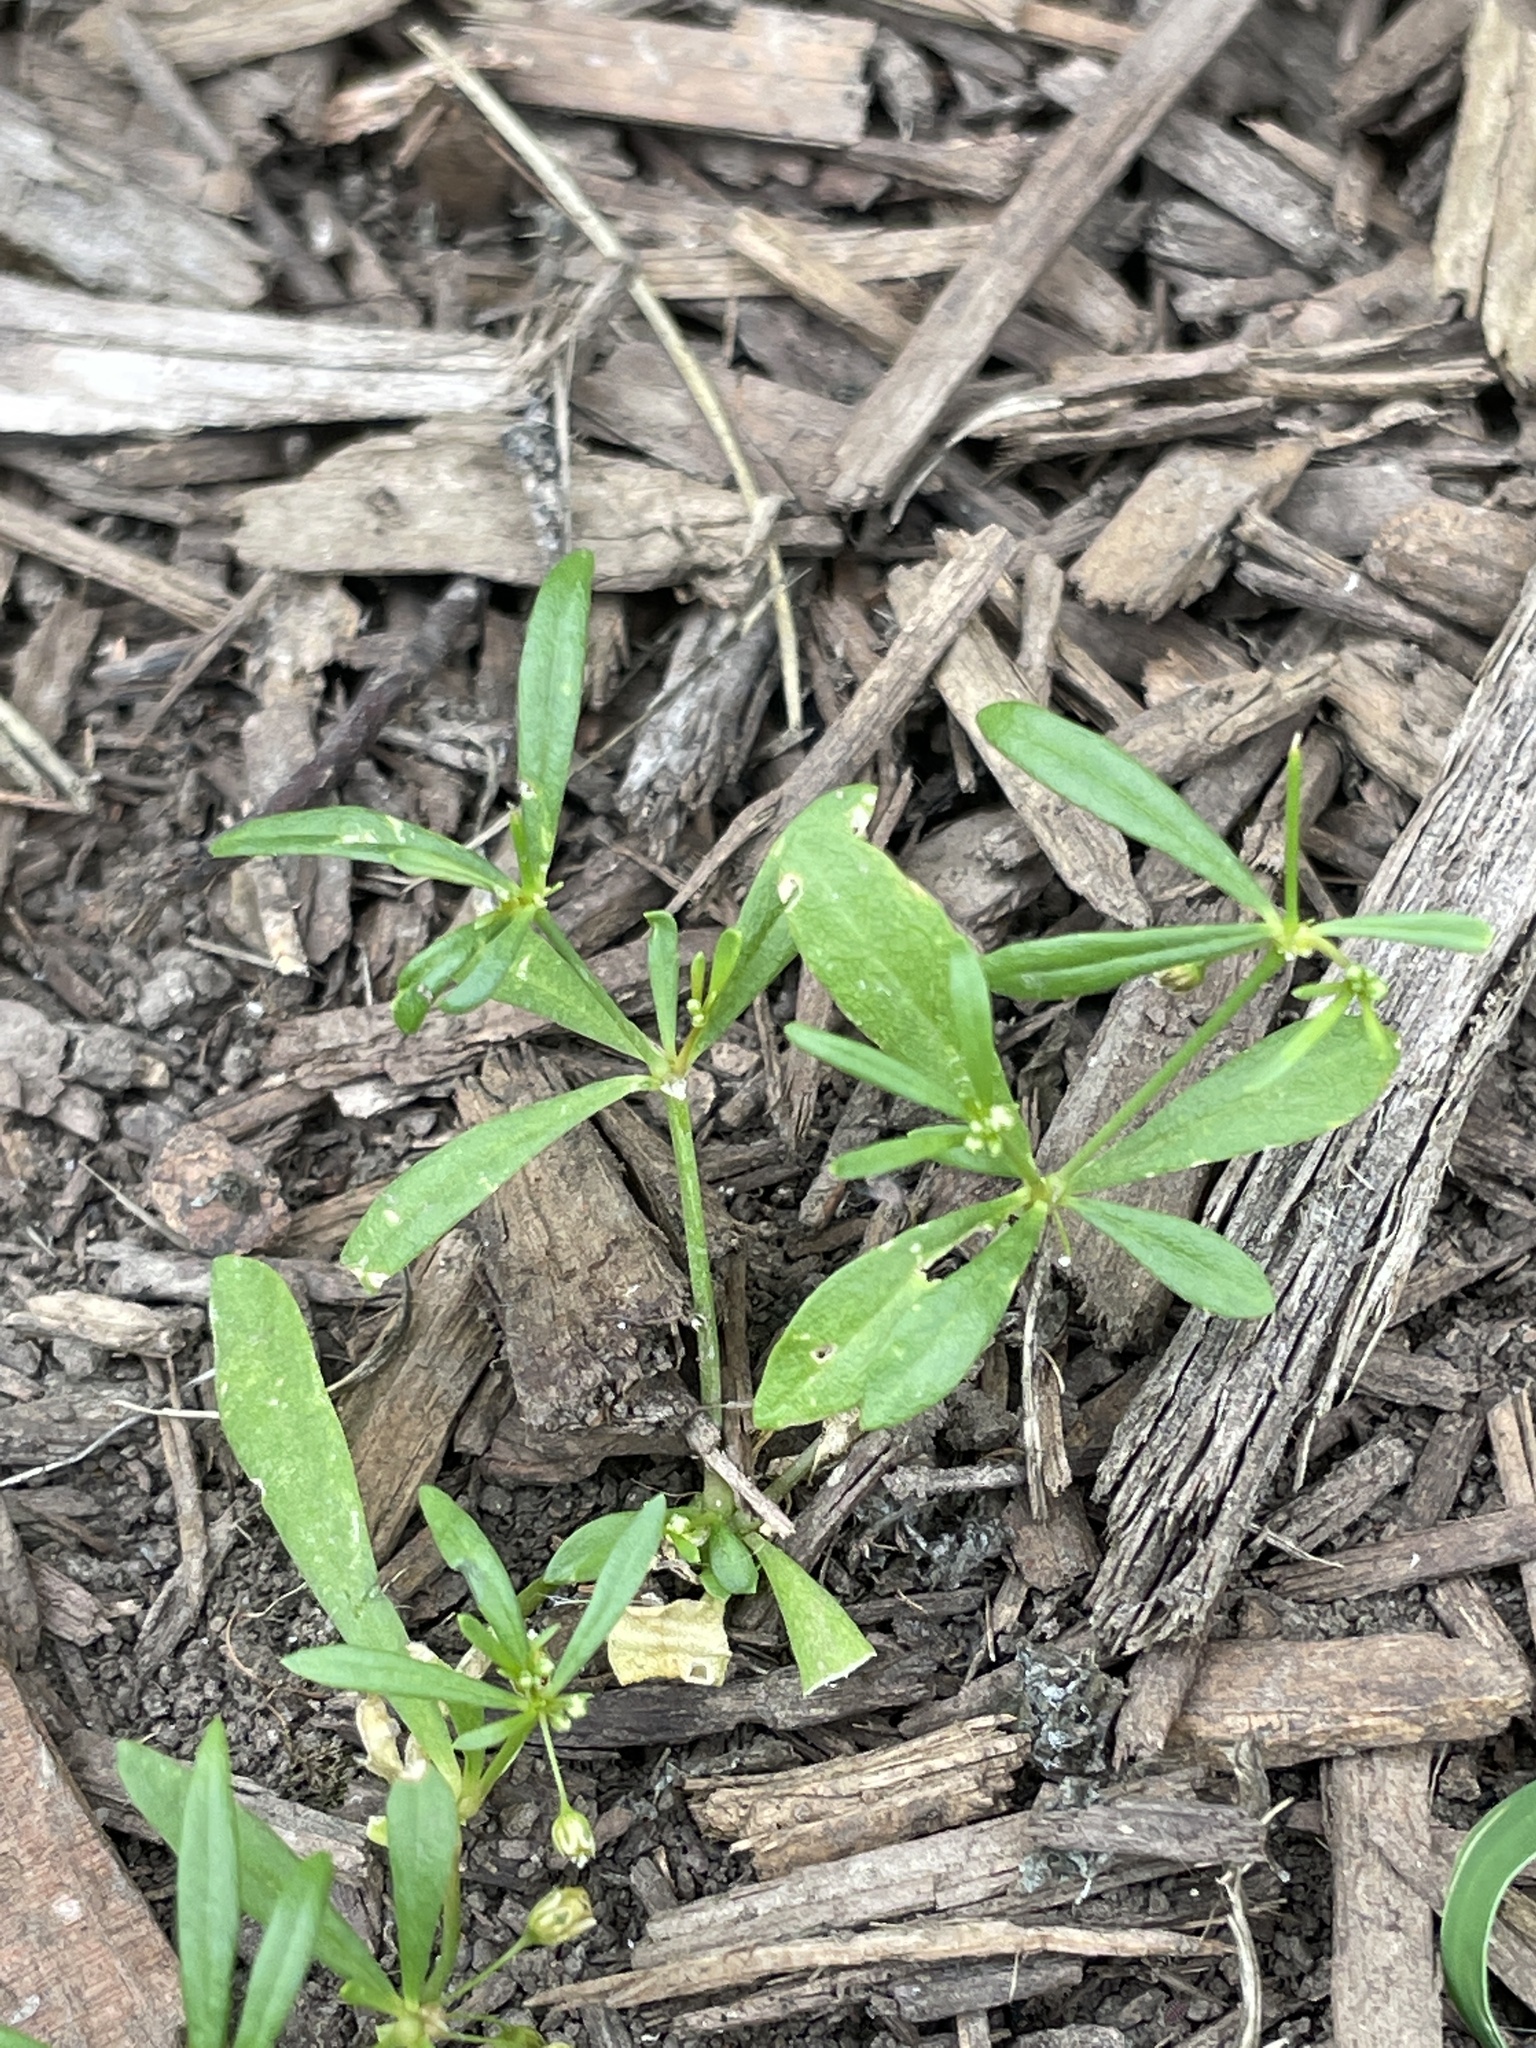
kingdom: Plantae
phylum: Tracheophyta
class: Magnoliopsida
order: Caryophyllales
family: Molluginaceae
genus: Mollugo
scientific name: Mollugo verticillata
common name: Green carpetweed
